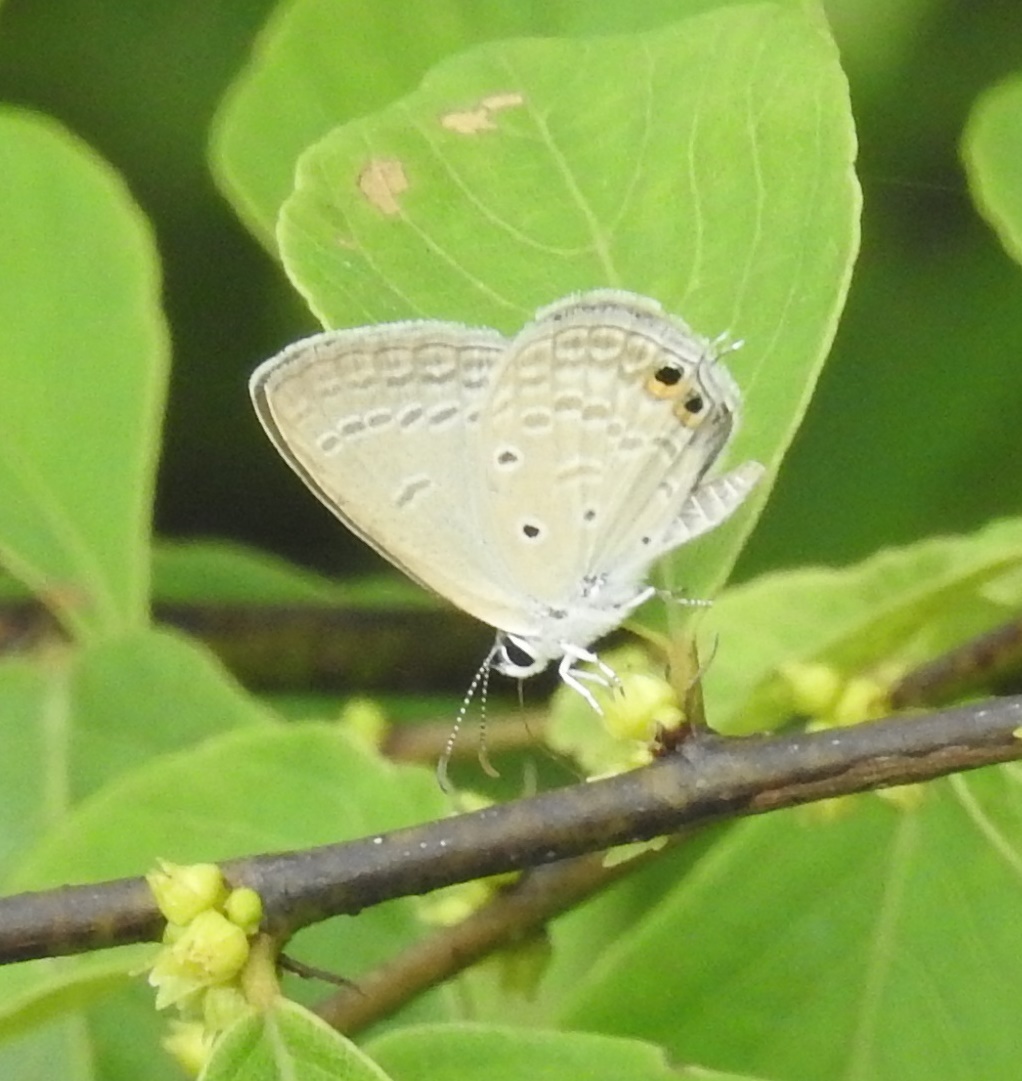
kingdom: Animalia
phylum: Arthropoda
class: Insecta
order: Lepidoptera
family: Lycaenidae
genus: Euchrysops
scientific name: Euchrysops cnejus
